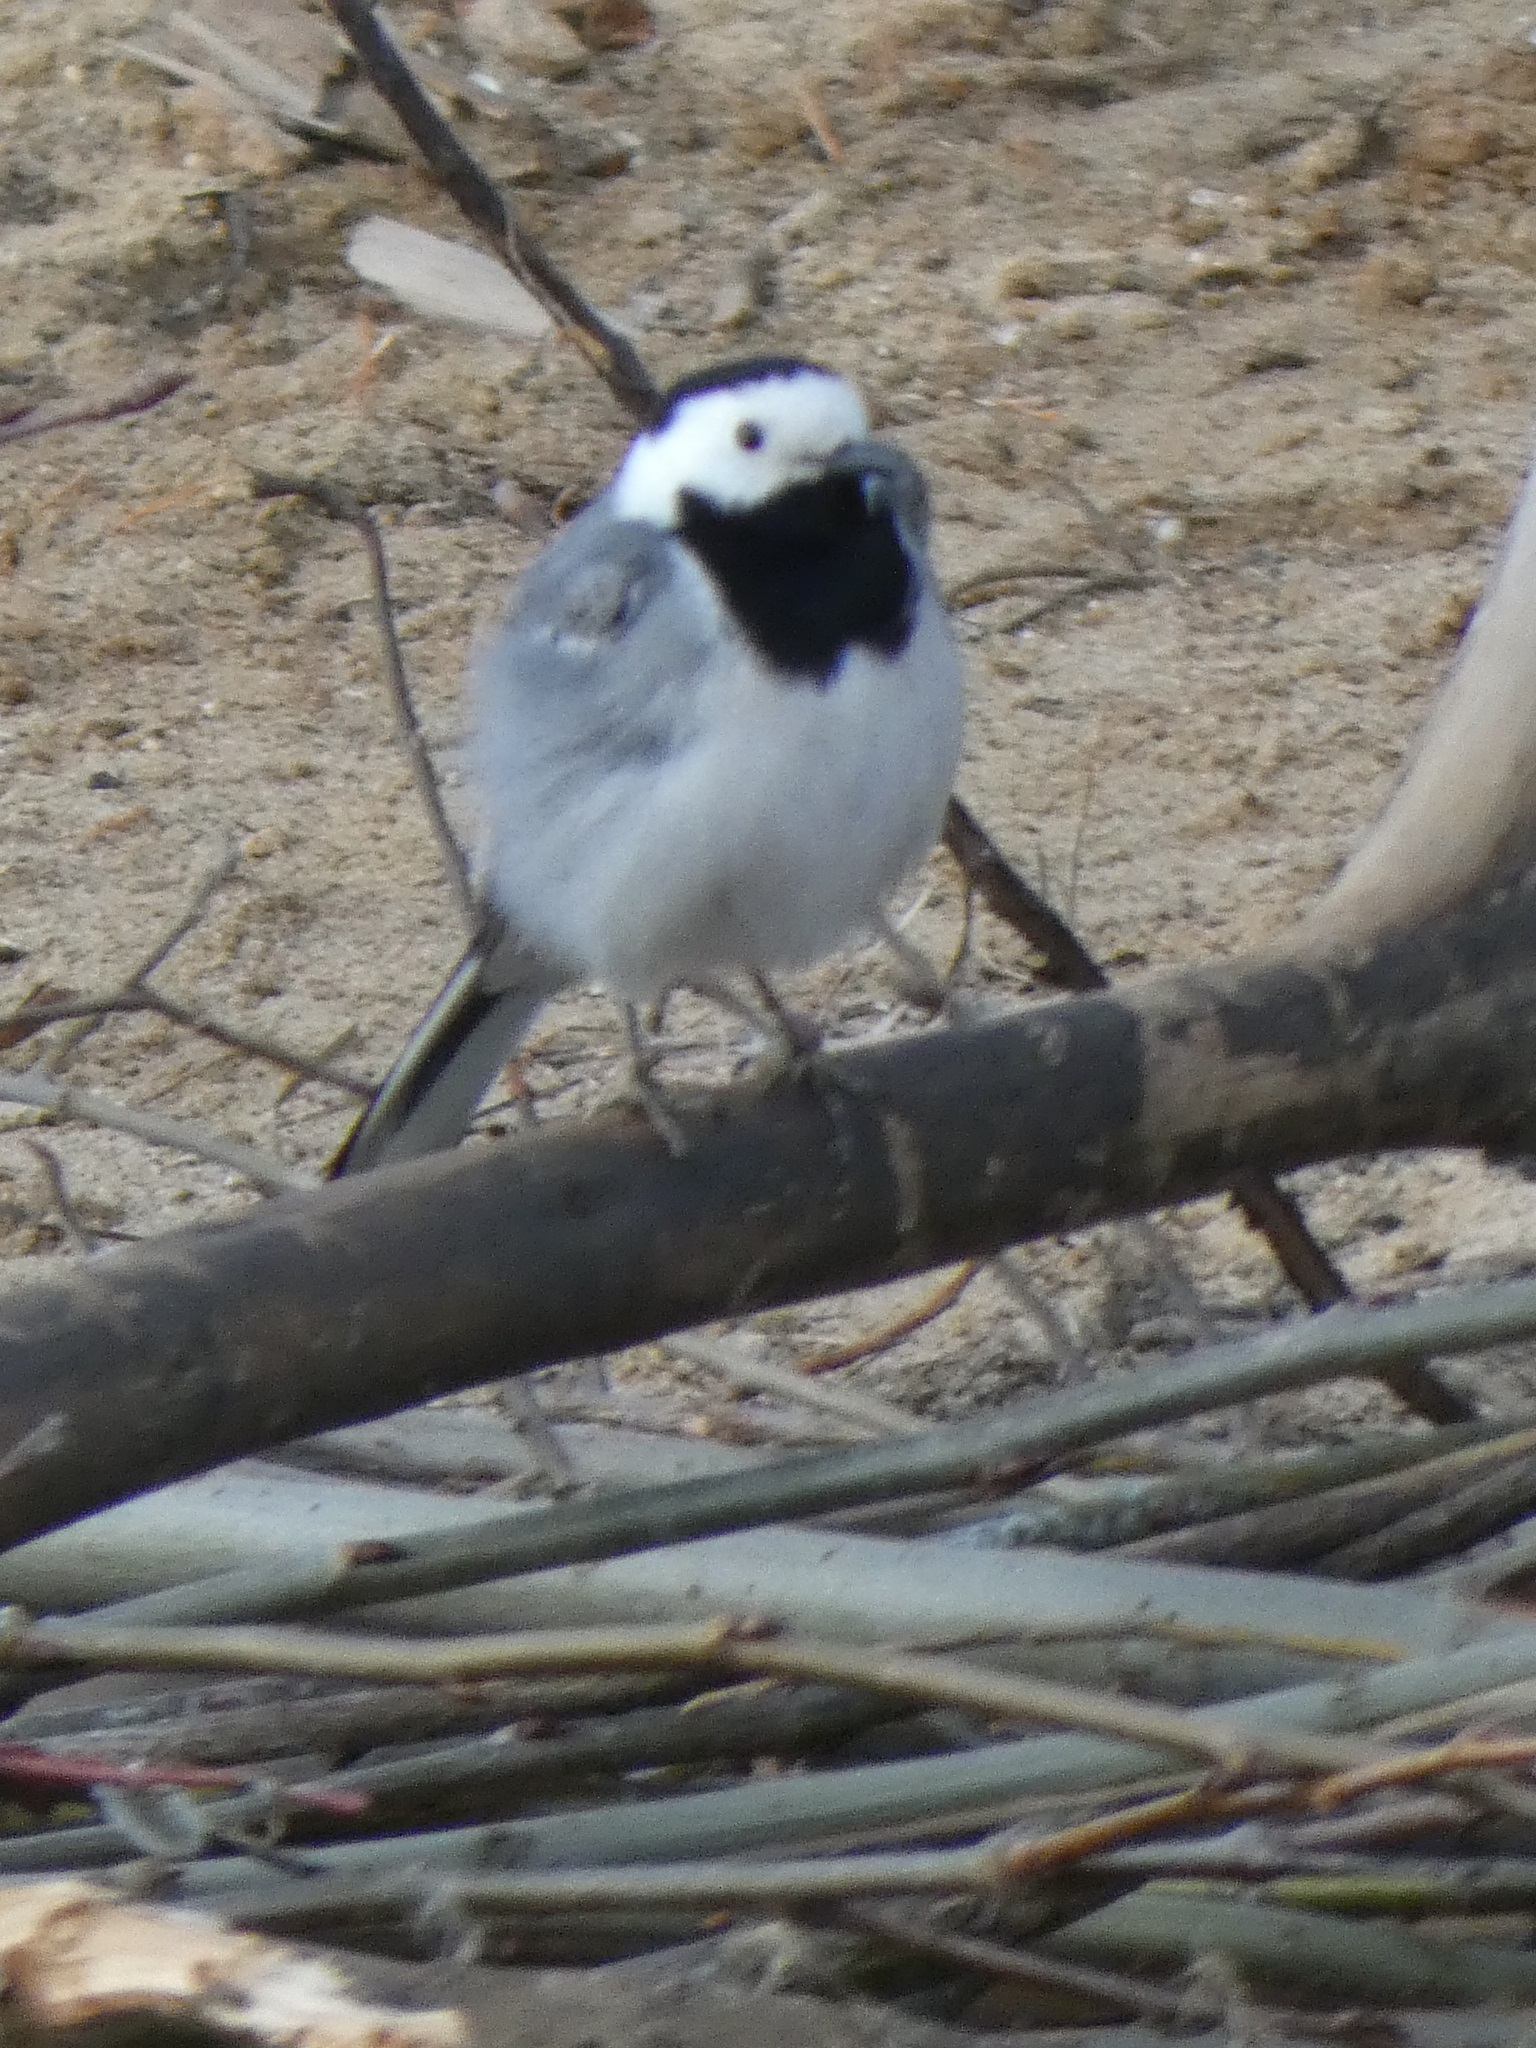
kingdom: Animalia
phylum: Chordata
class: Aves
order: Passeriformes
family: Motacillidae
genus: Motacilla
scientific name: Motacilla alba
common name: White wagtail
